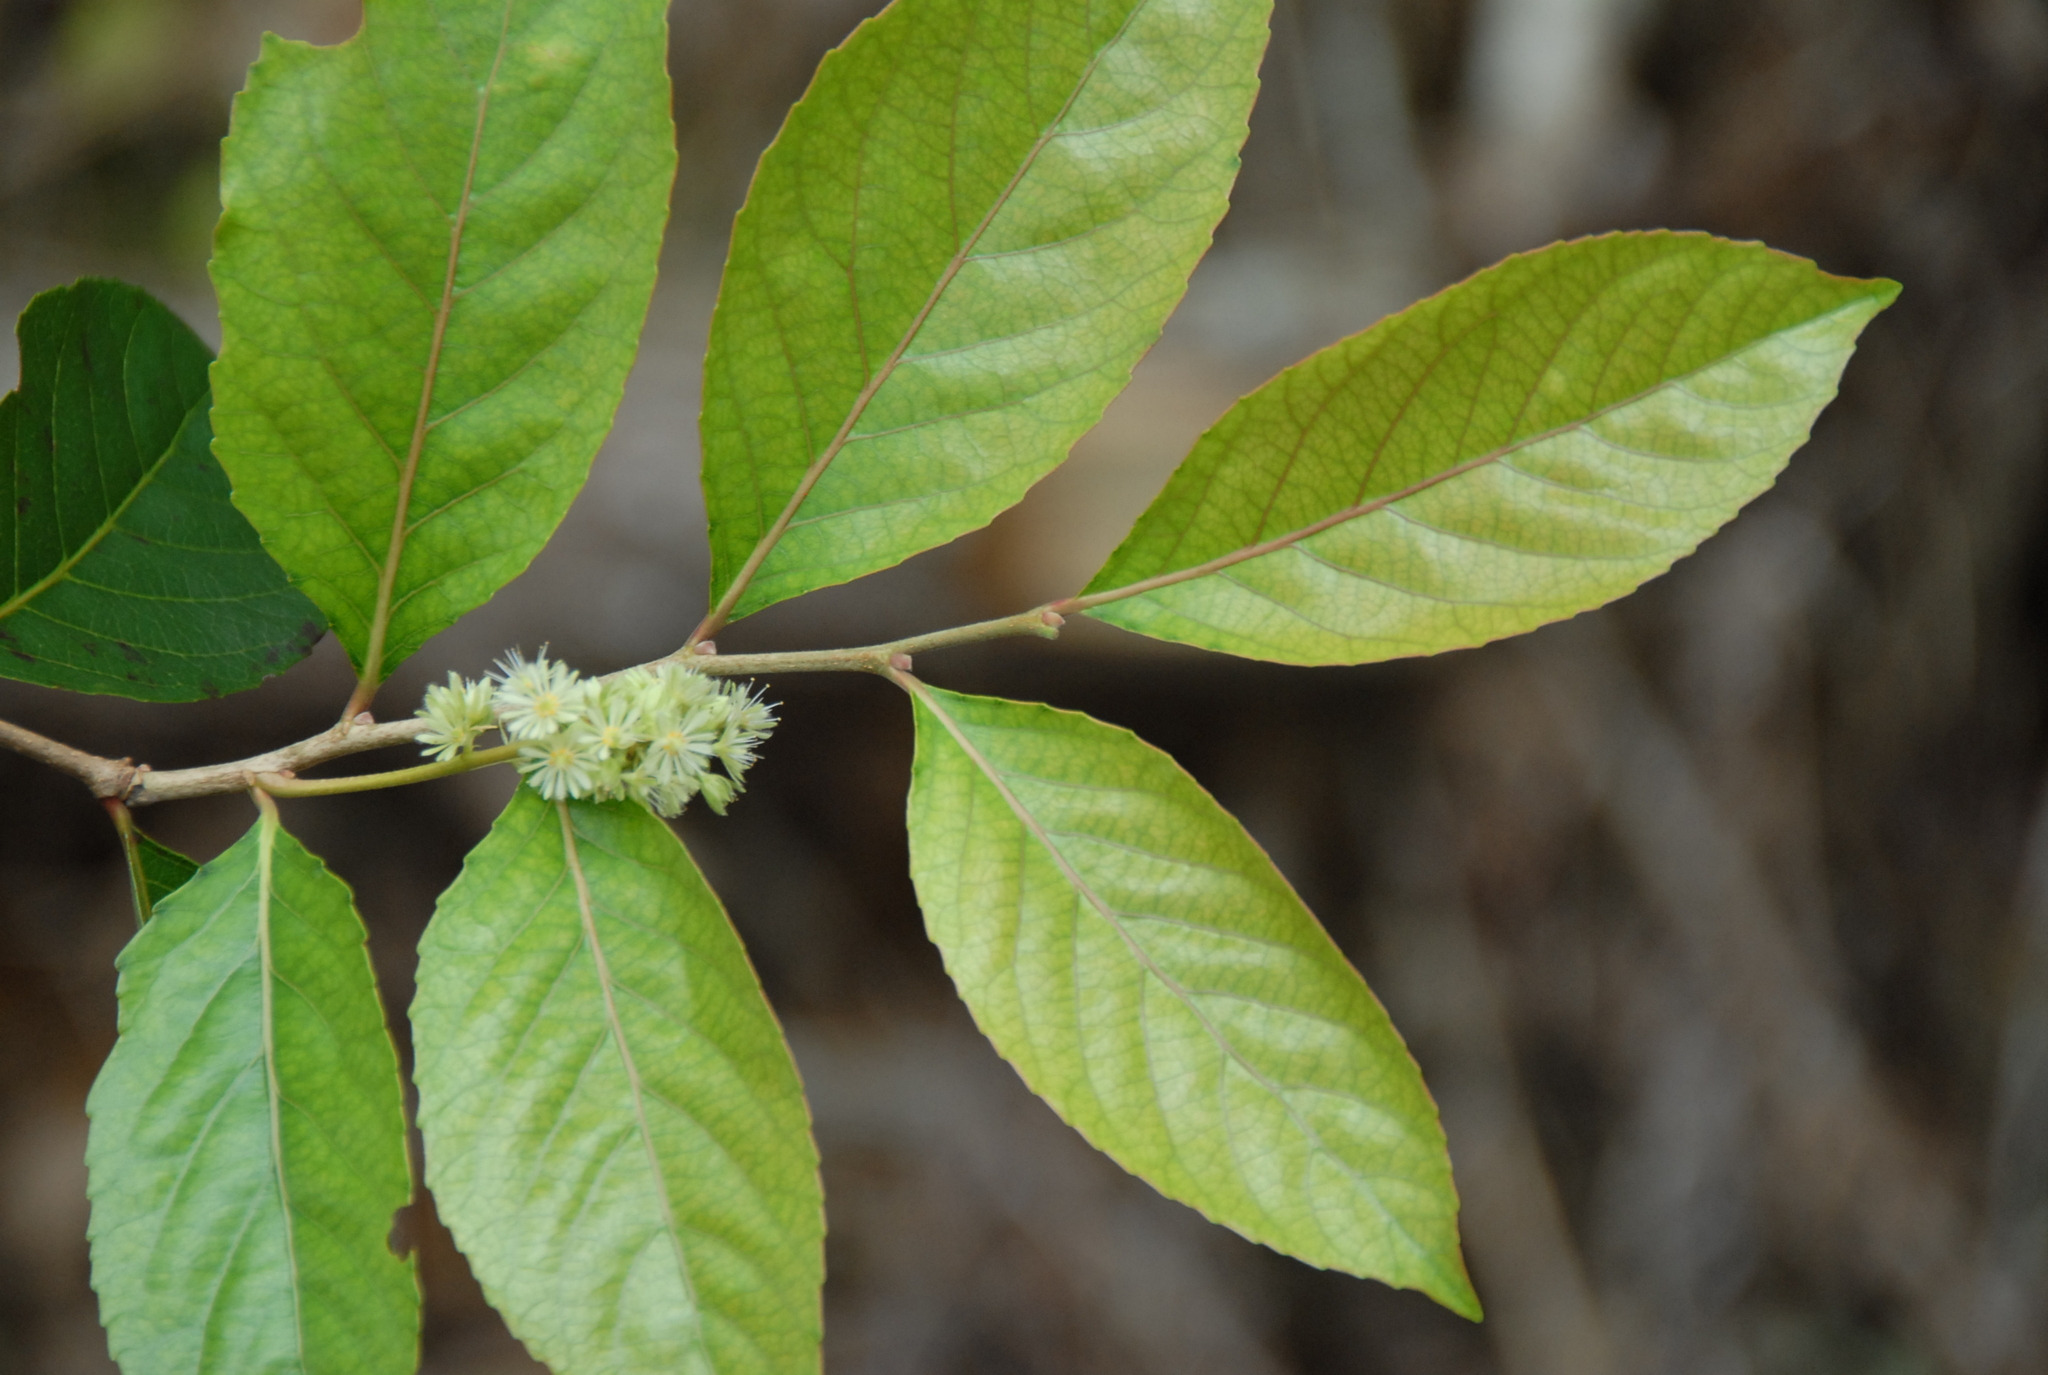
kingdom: Plantae
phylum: Tracheophyta
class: Magnoliopsida
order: Malpighiales
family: Salicaceae
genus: Homalium
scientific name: Homalium cochinchinensis
